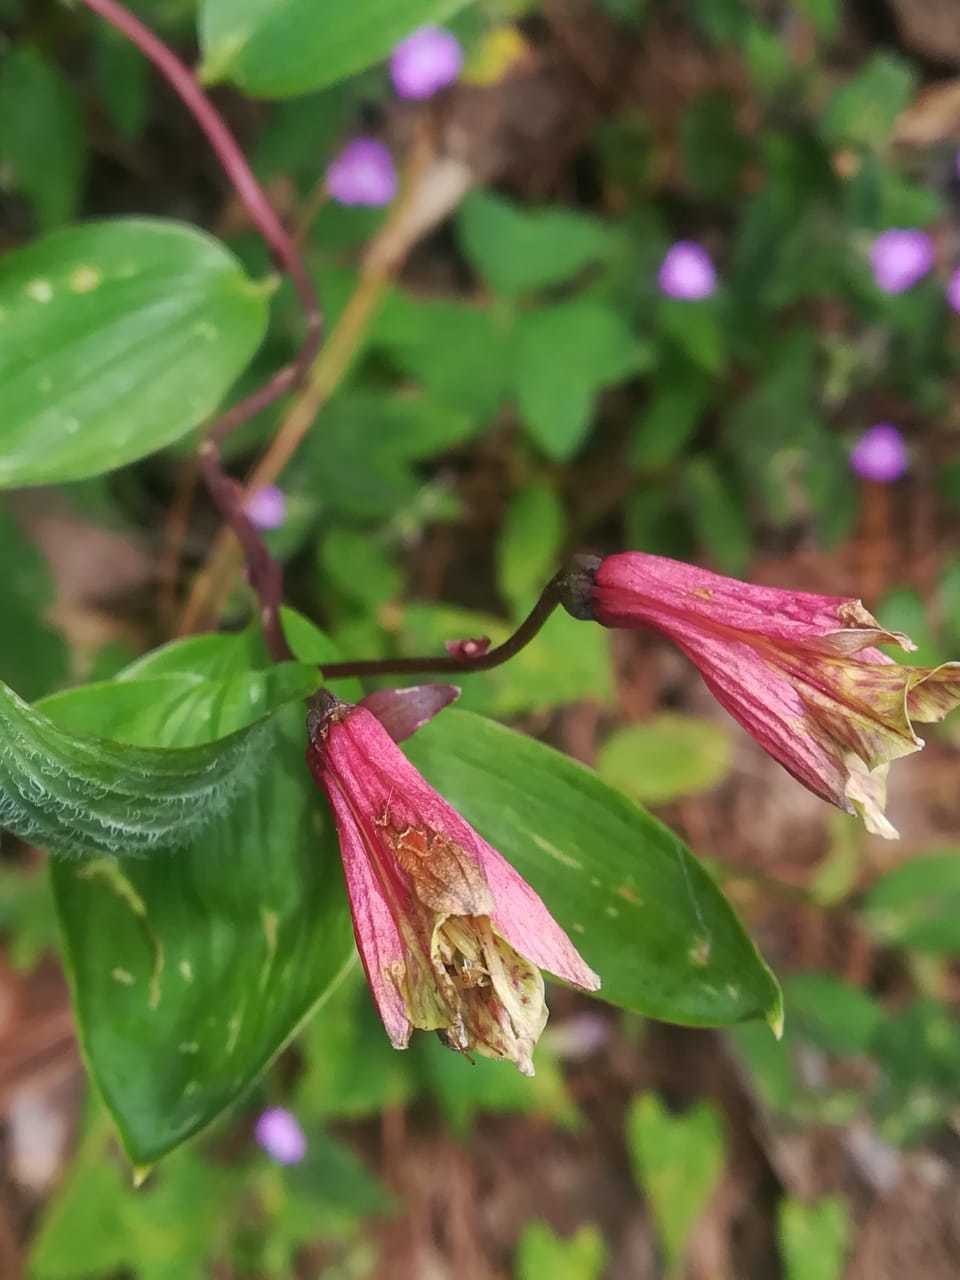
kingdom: Plantae
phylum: Tracheophyta
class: Liliopsida
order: Liliales
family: Alstroemeriaceae
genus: Bomarea
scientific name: Bomarea edulis
